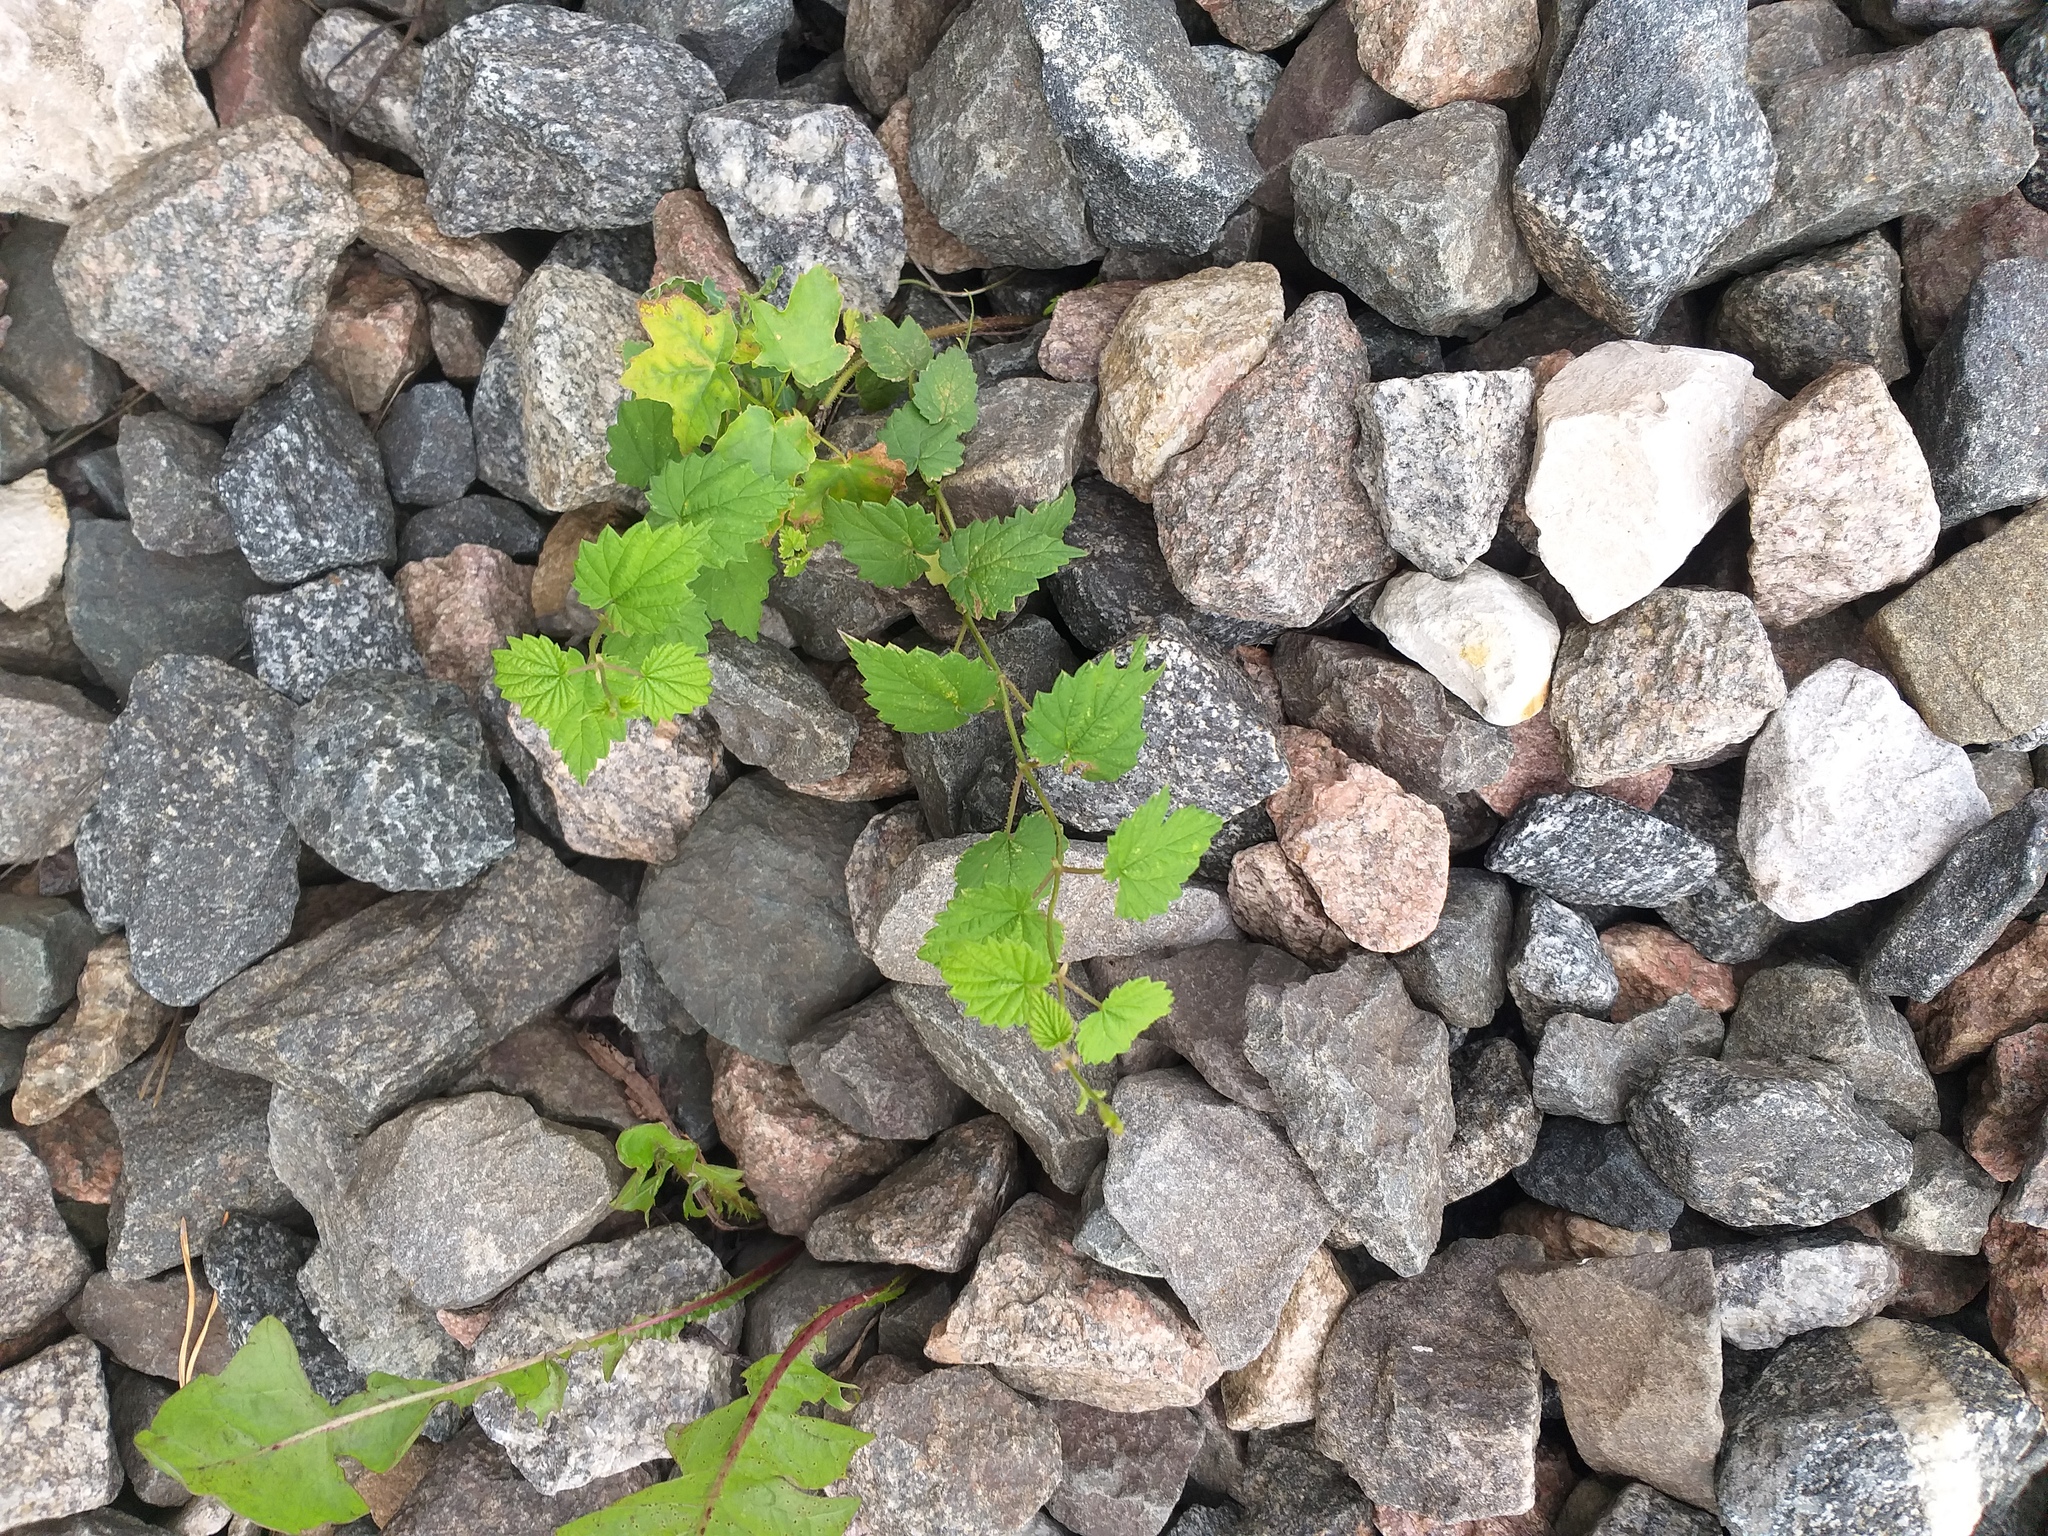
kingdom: Plantae
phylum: Tracheophyta
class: Magnoliopsida
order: Rosales
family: Cannabaceae
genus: Humulus
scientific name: Humulus lupulus
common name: Hop
